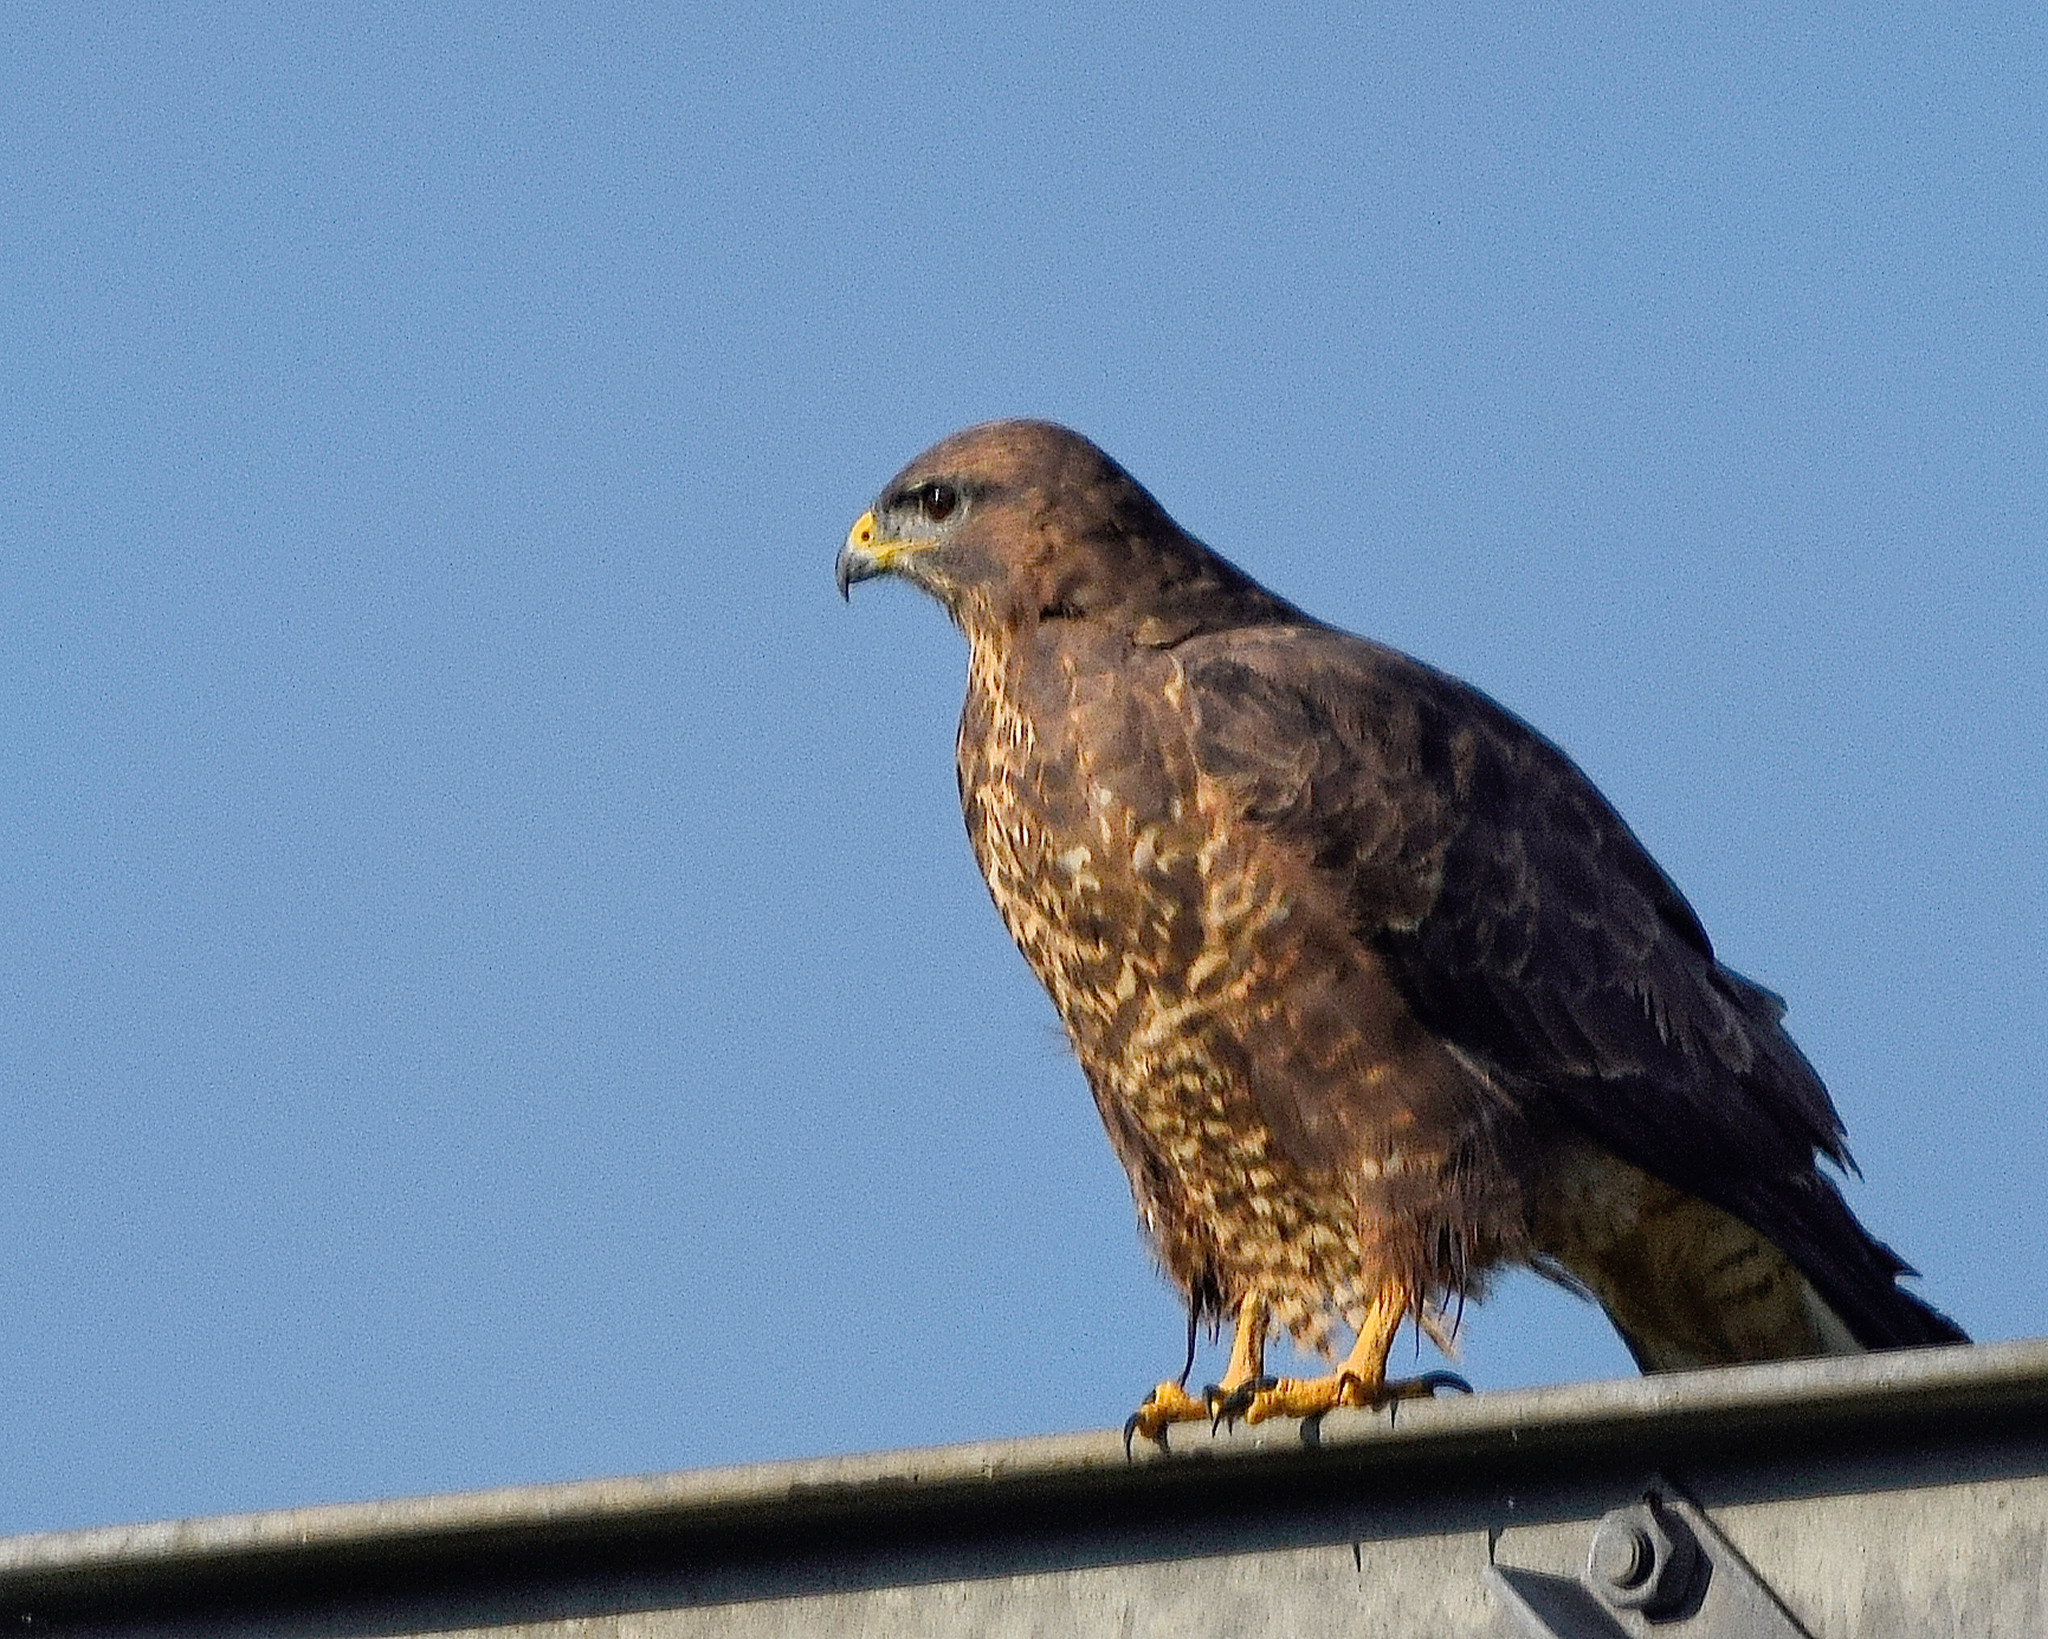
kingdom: Animalia
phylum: Chordata
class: Aves
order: Accipitriformes
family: Accipitridae
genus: Buteo
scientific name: Buteo buteo
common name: Common buzzard
